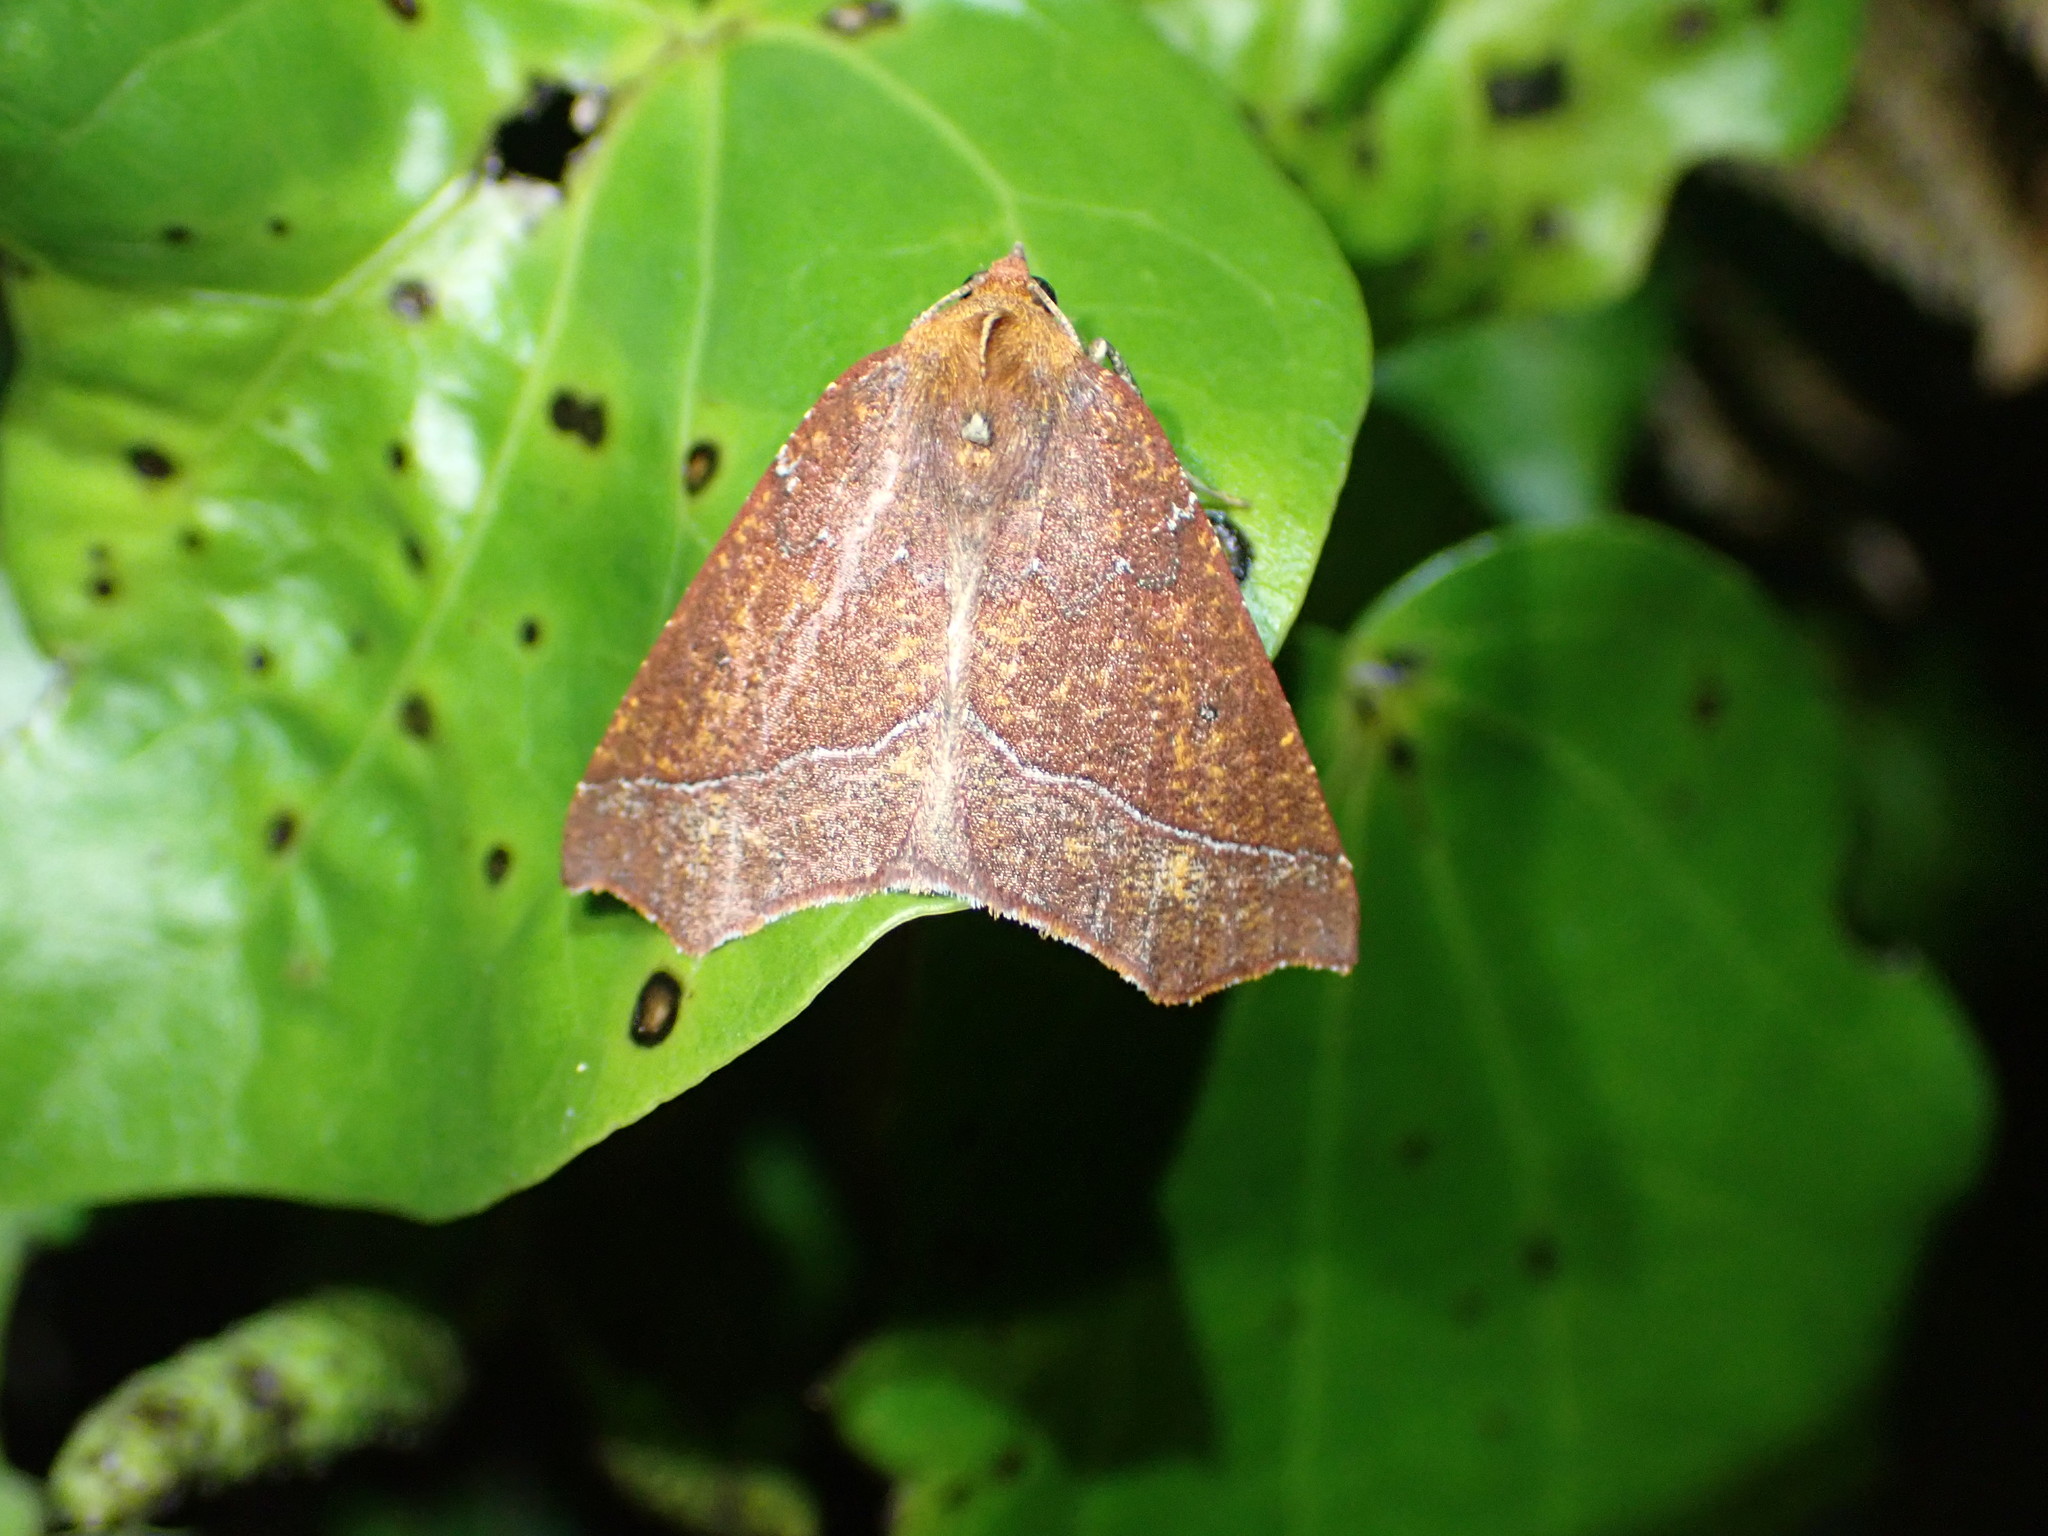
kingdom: Animalia
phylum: Arthropoda
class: Insecta
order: Lepidoptera
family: Geometridae
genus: Ischalis
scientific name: Ischalis nelsonaria
